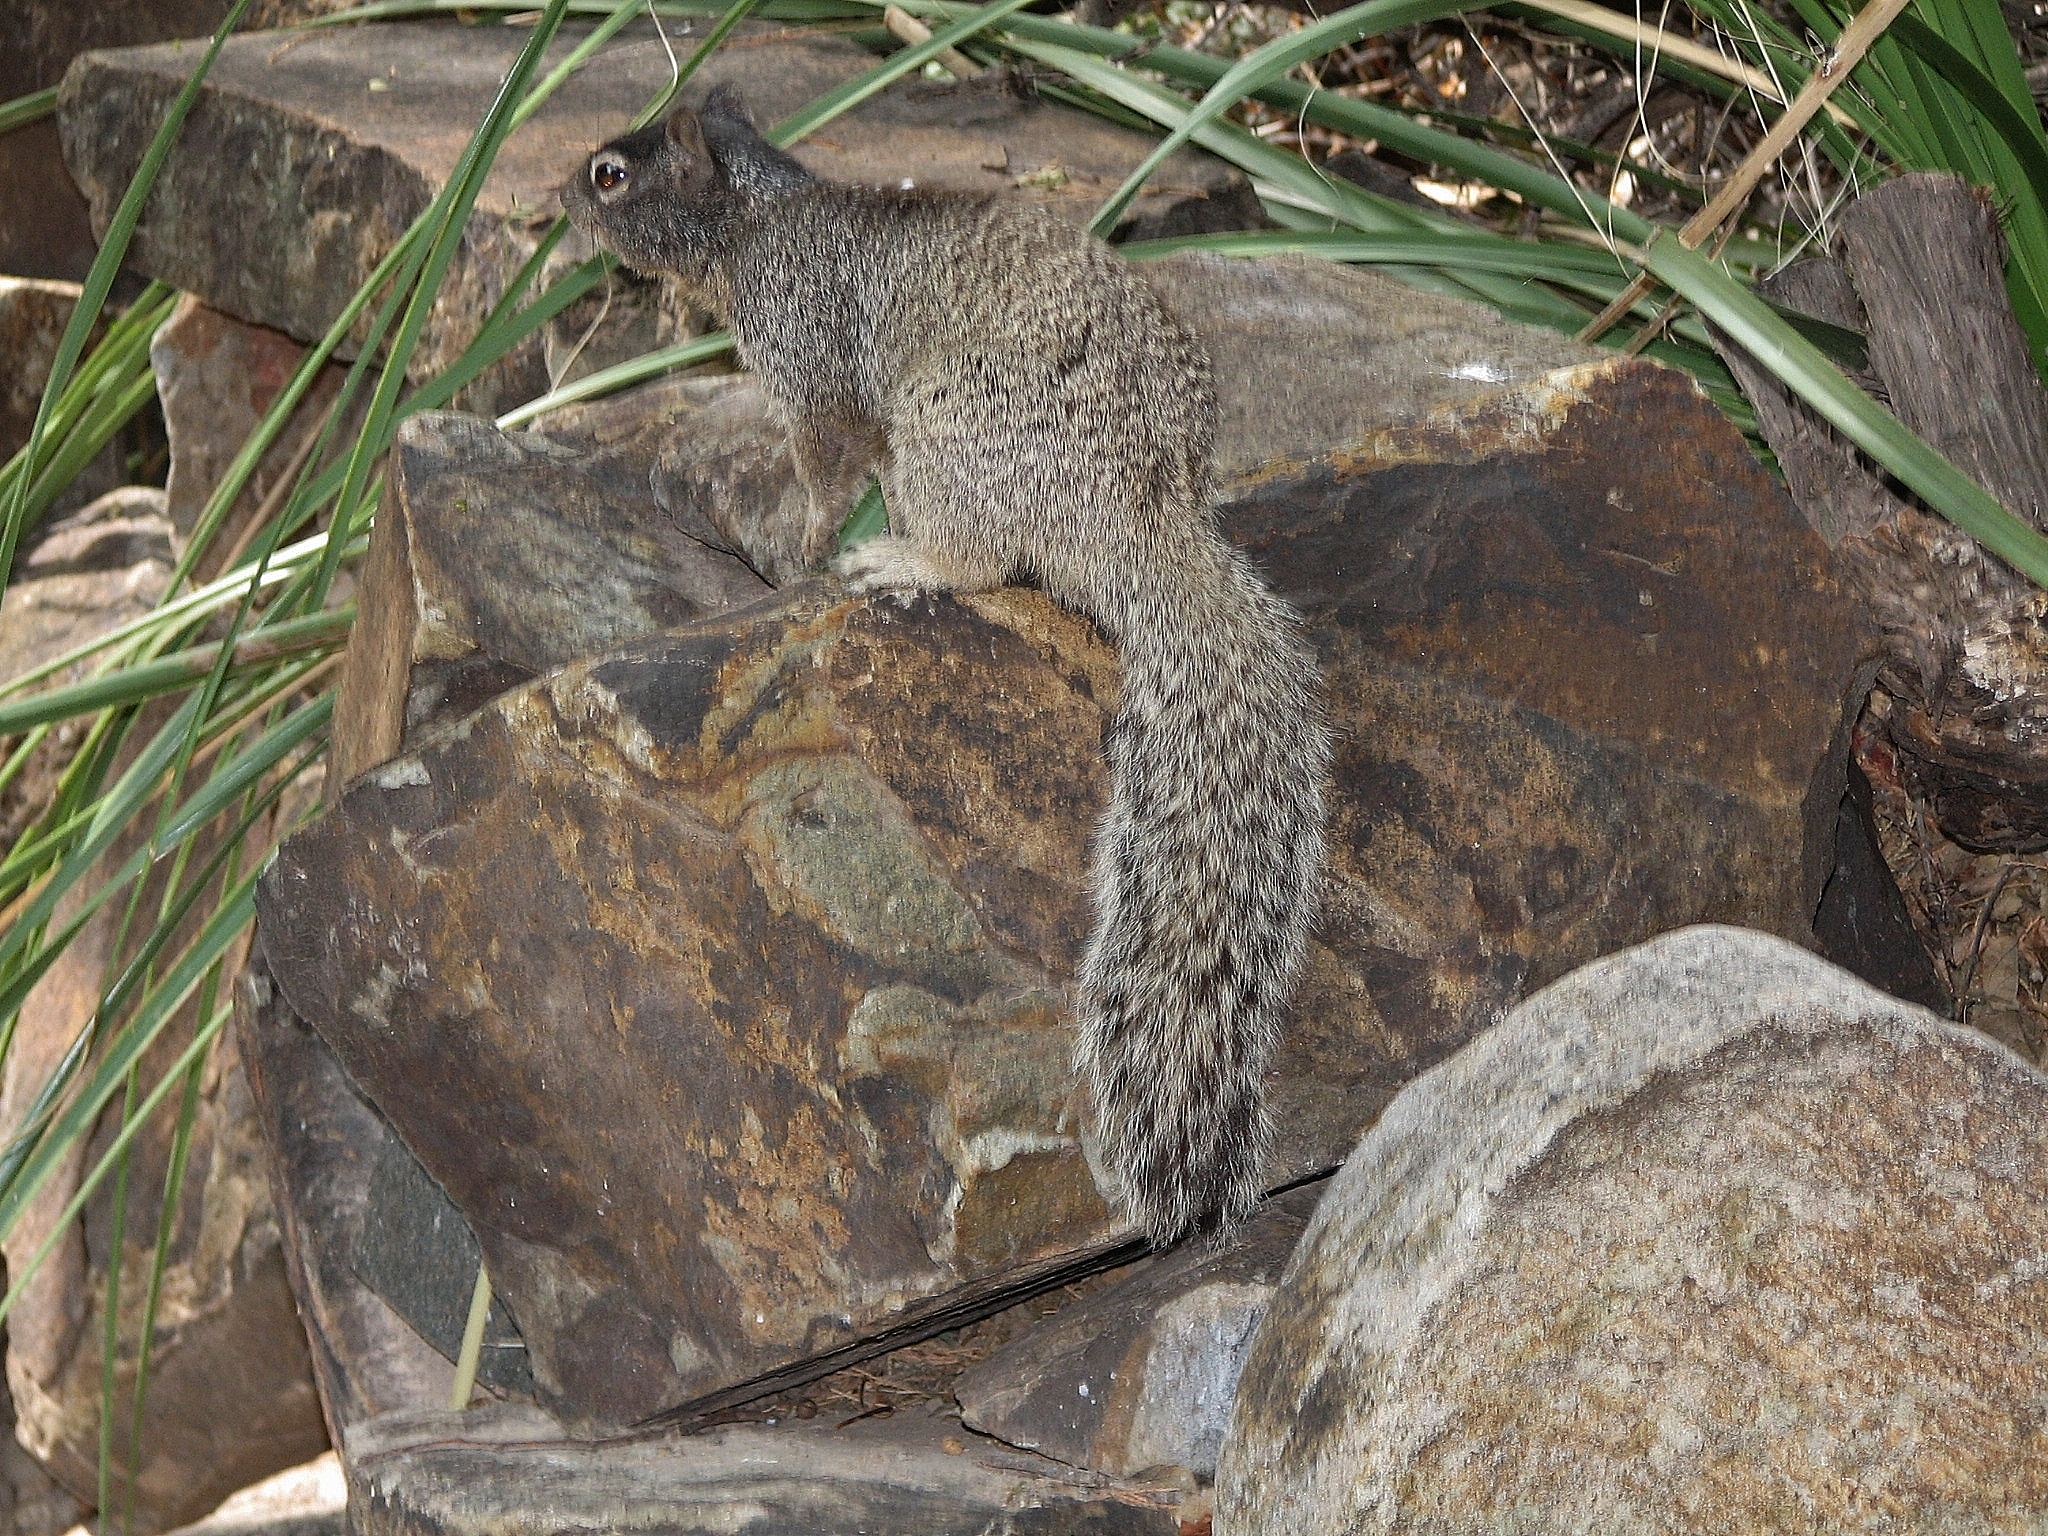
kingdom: Animalia
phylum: Chordata
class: Mammalia
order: Rodentia
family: Sciuridae
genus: Otospermophilus
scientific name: Otospermophilus variegatus
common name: Rock squirrel
